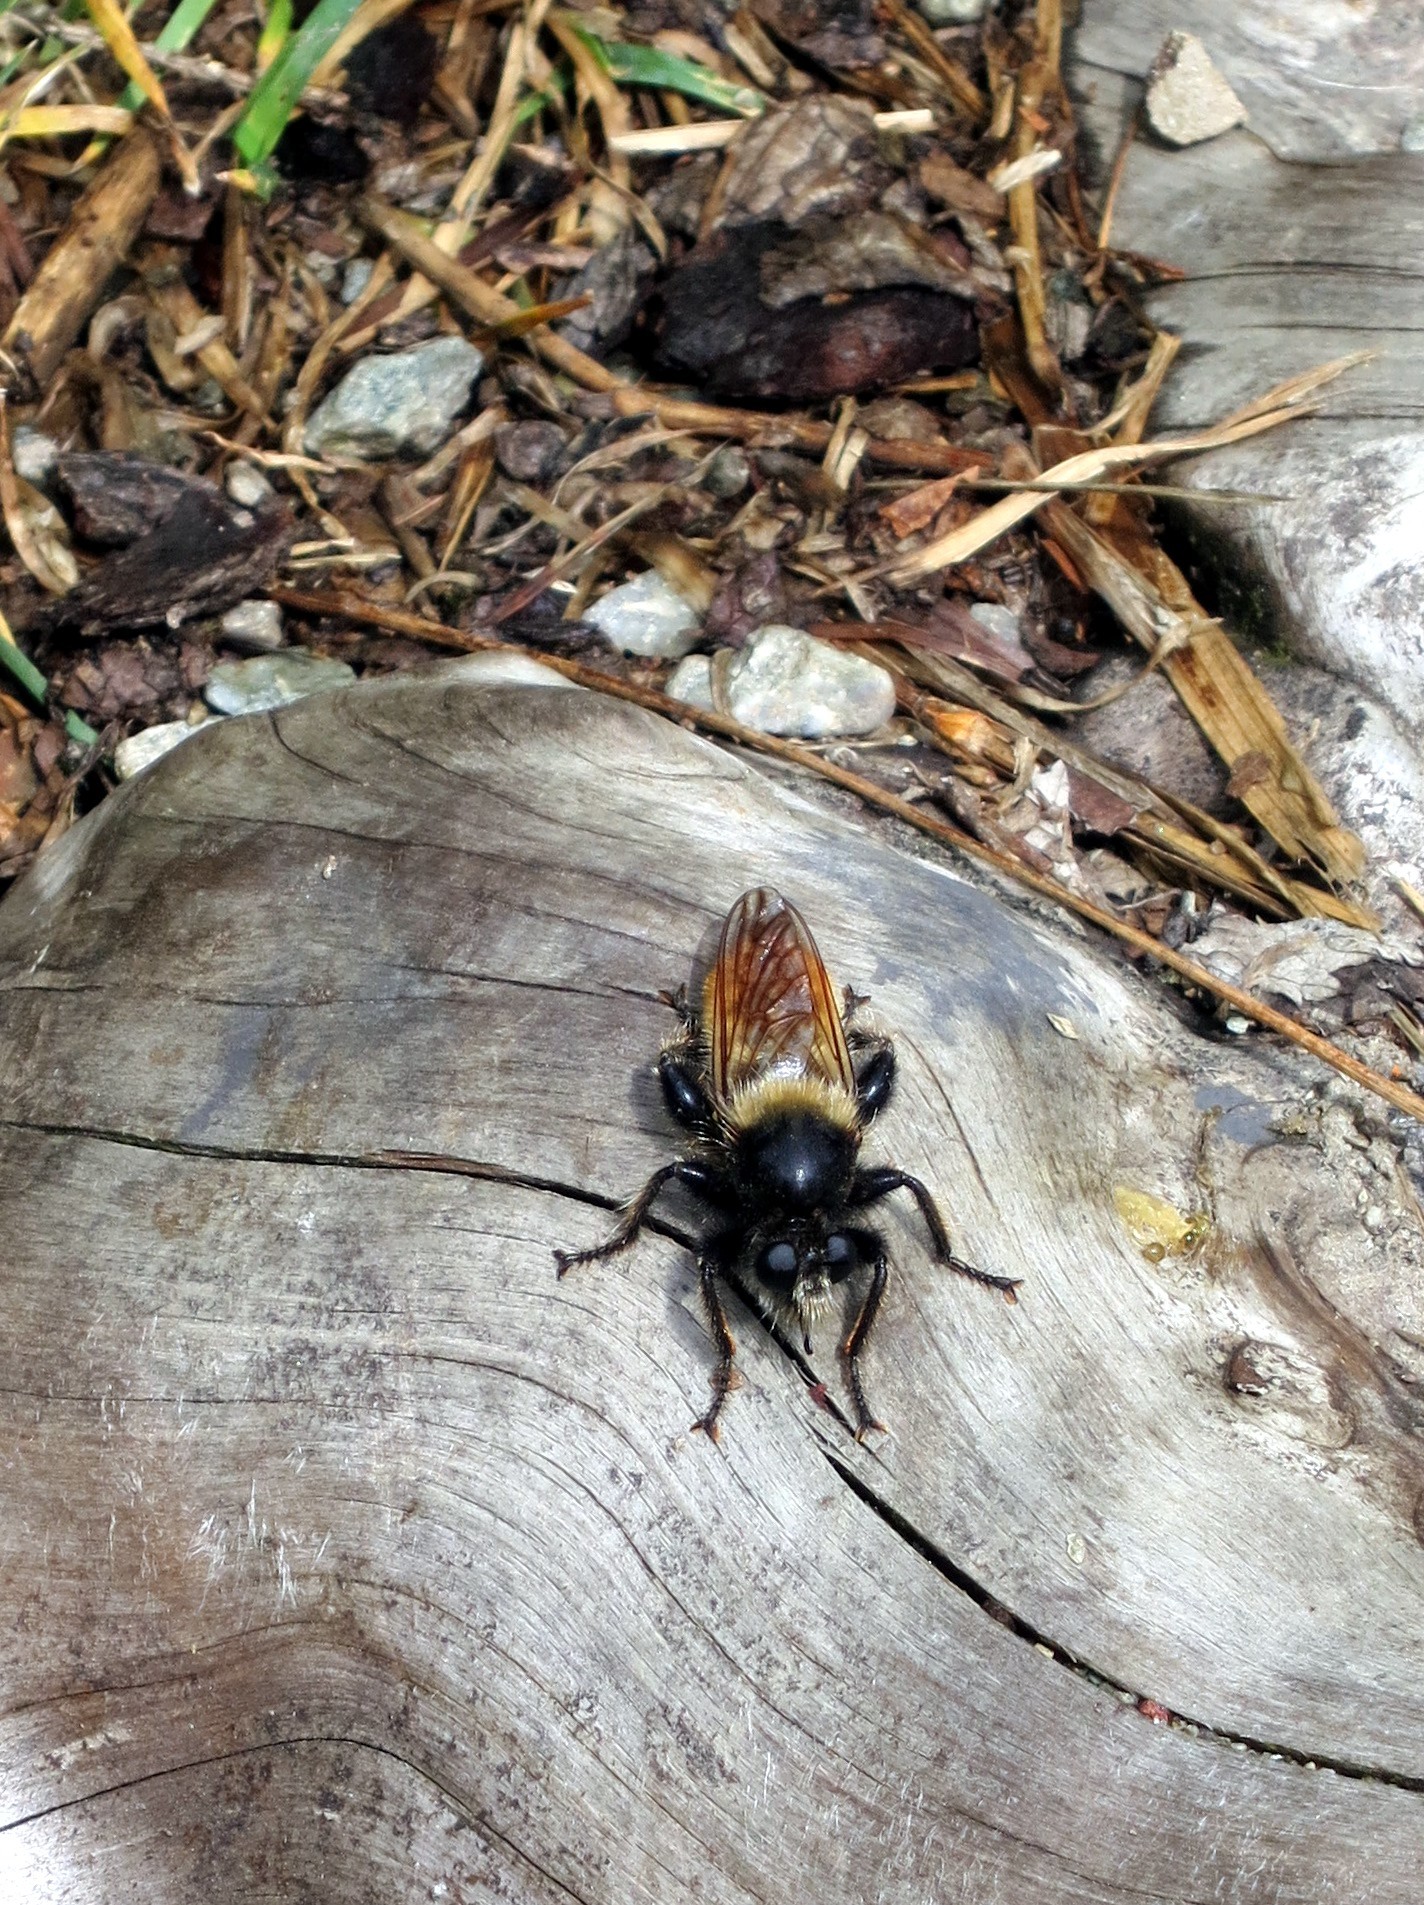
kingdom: Animalia
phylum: Arthropoda
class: Insecta
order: Diptera
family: Asilidae
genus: Laphria
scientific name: Laphria flava
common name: Bumblebee robberfly
